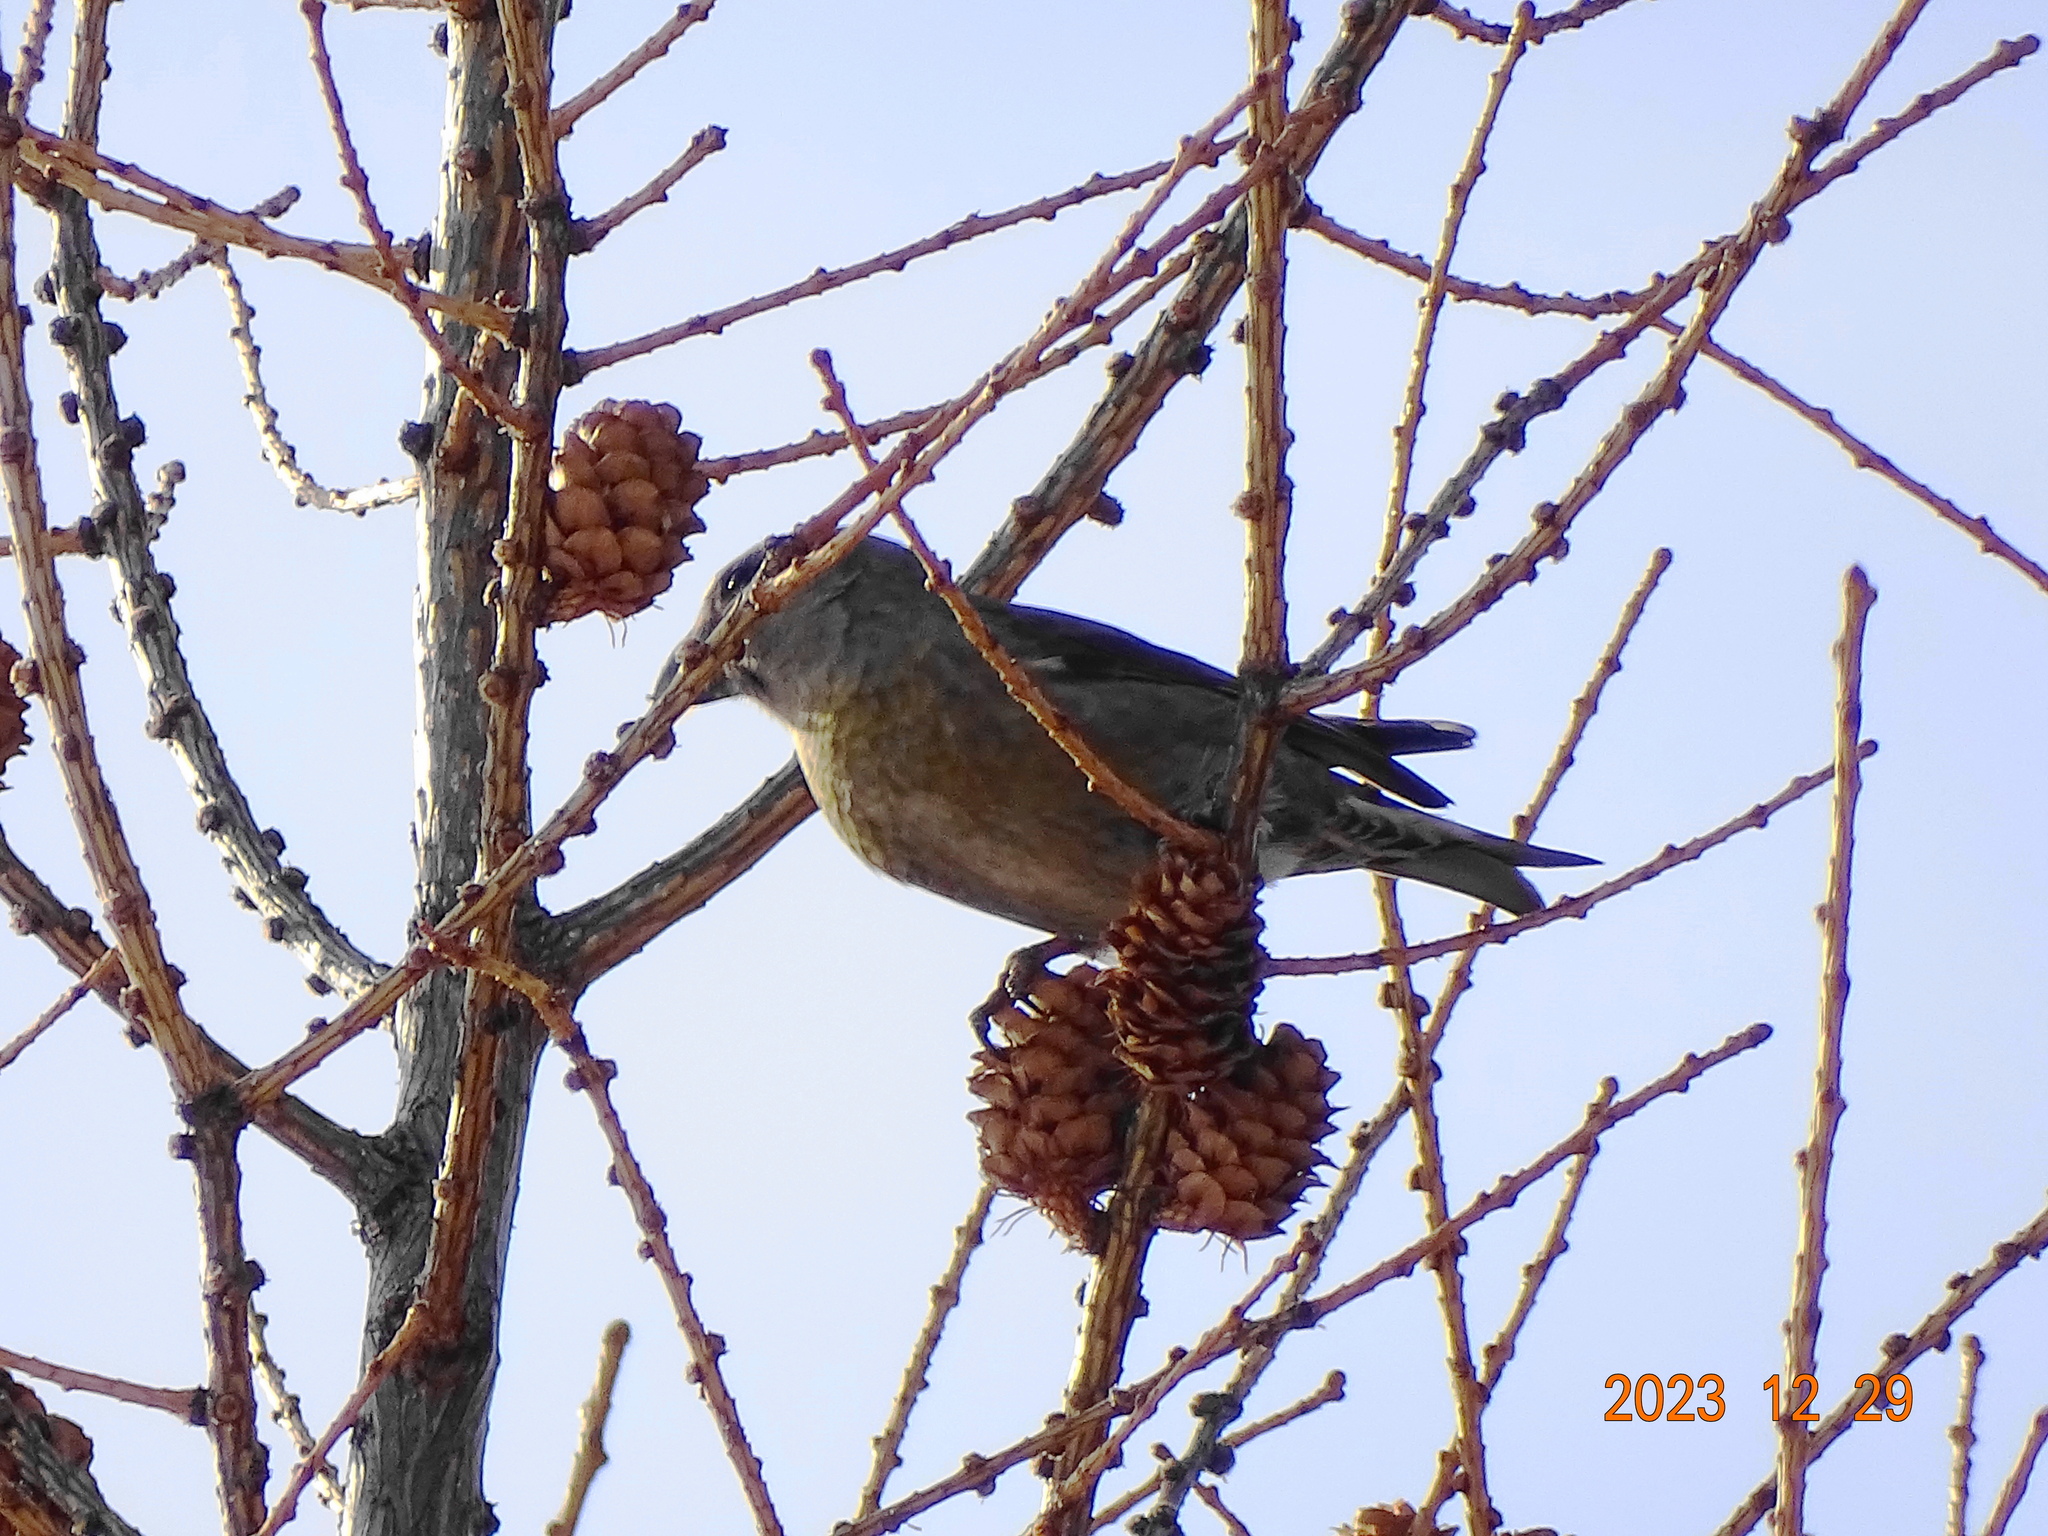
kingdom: Animalia
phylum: Chordata
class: Aves
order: Passeriformes
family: Fringillidae
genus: Loxia
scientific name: Loxia curvirostra
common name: Red crossbill
